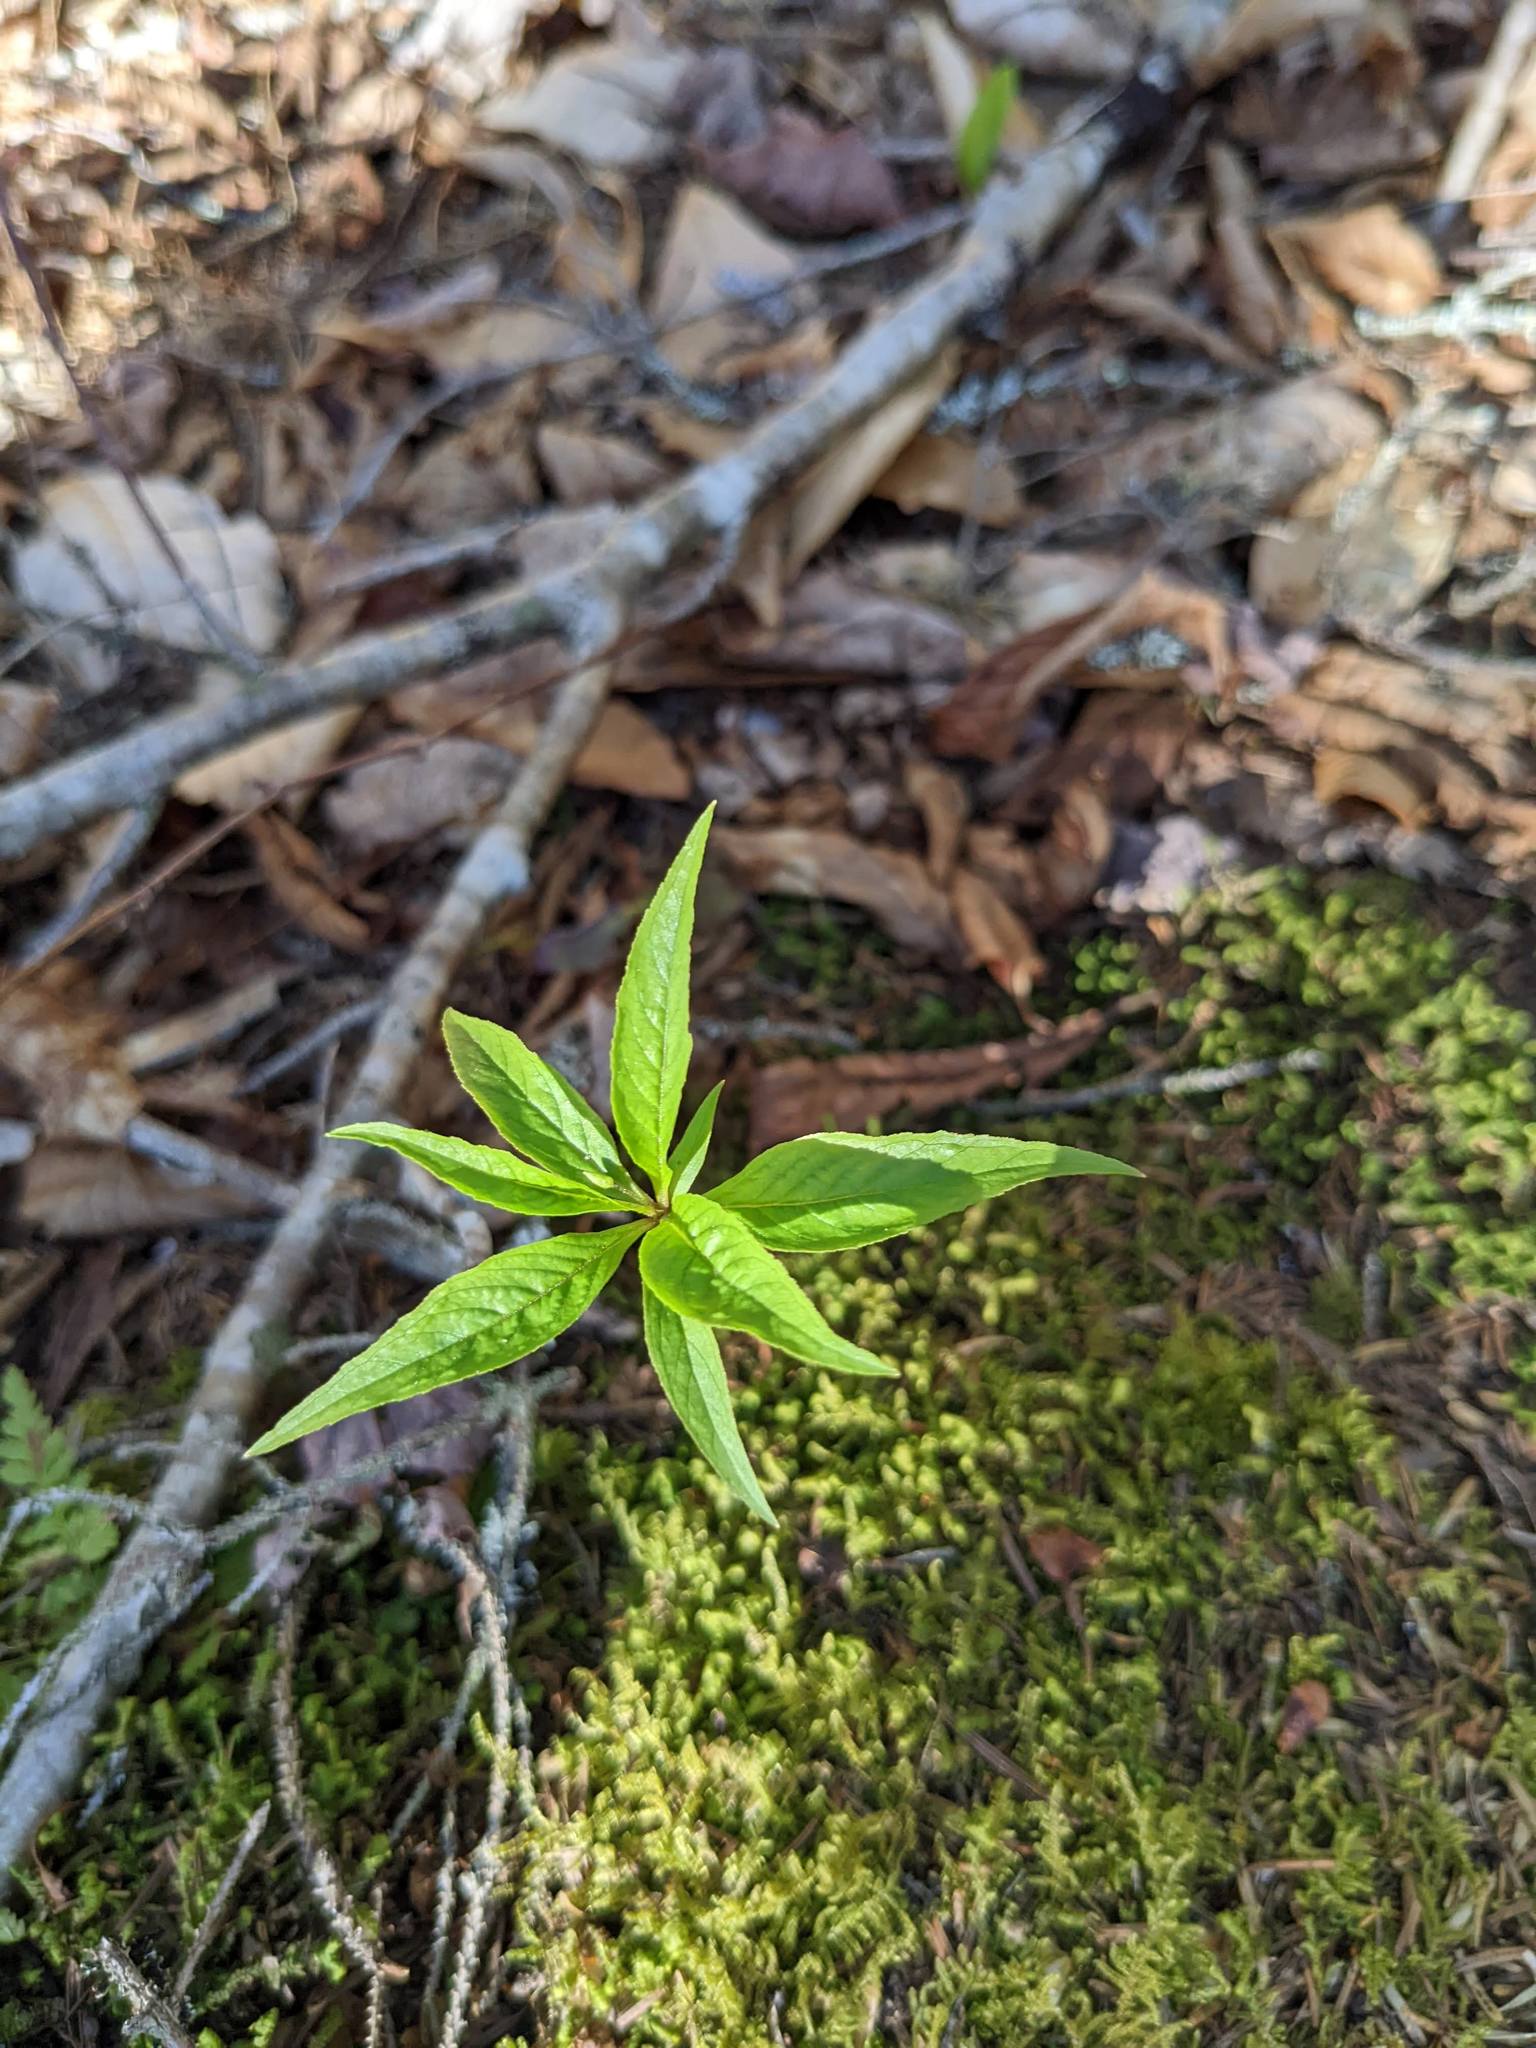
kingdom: Plantae
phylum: Tracheophyta
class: Magnoliopsida
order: Ericales
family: Primulaceae
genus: Lysimachia
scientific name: Lysimachia borealis
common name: American starflower
